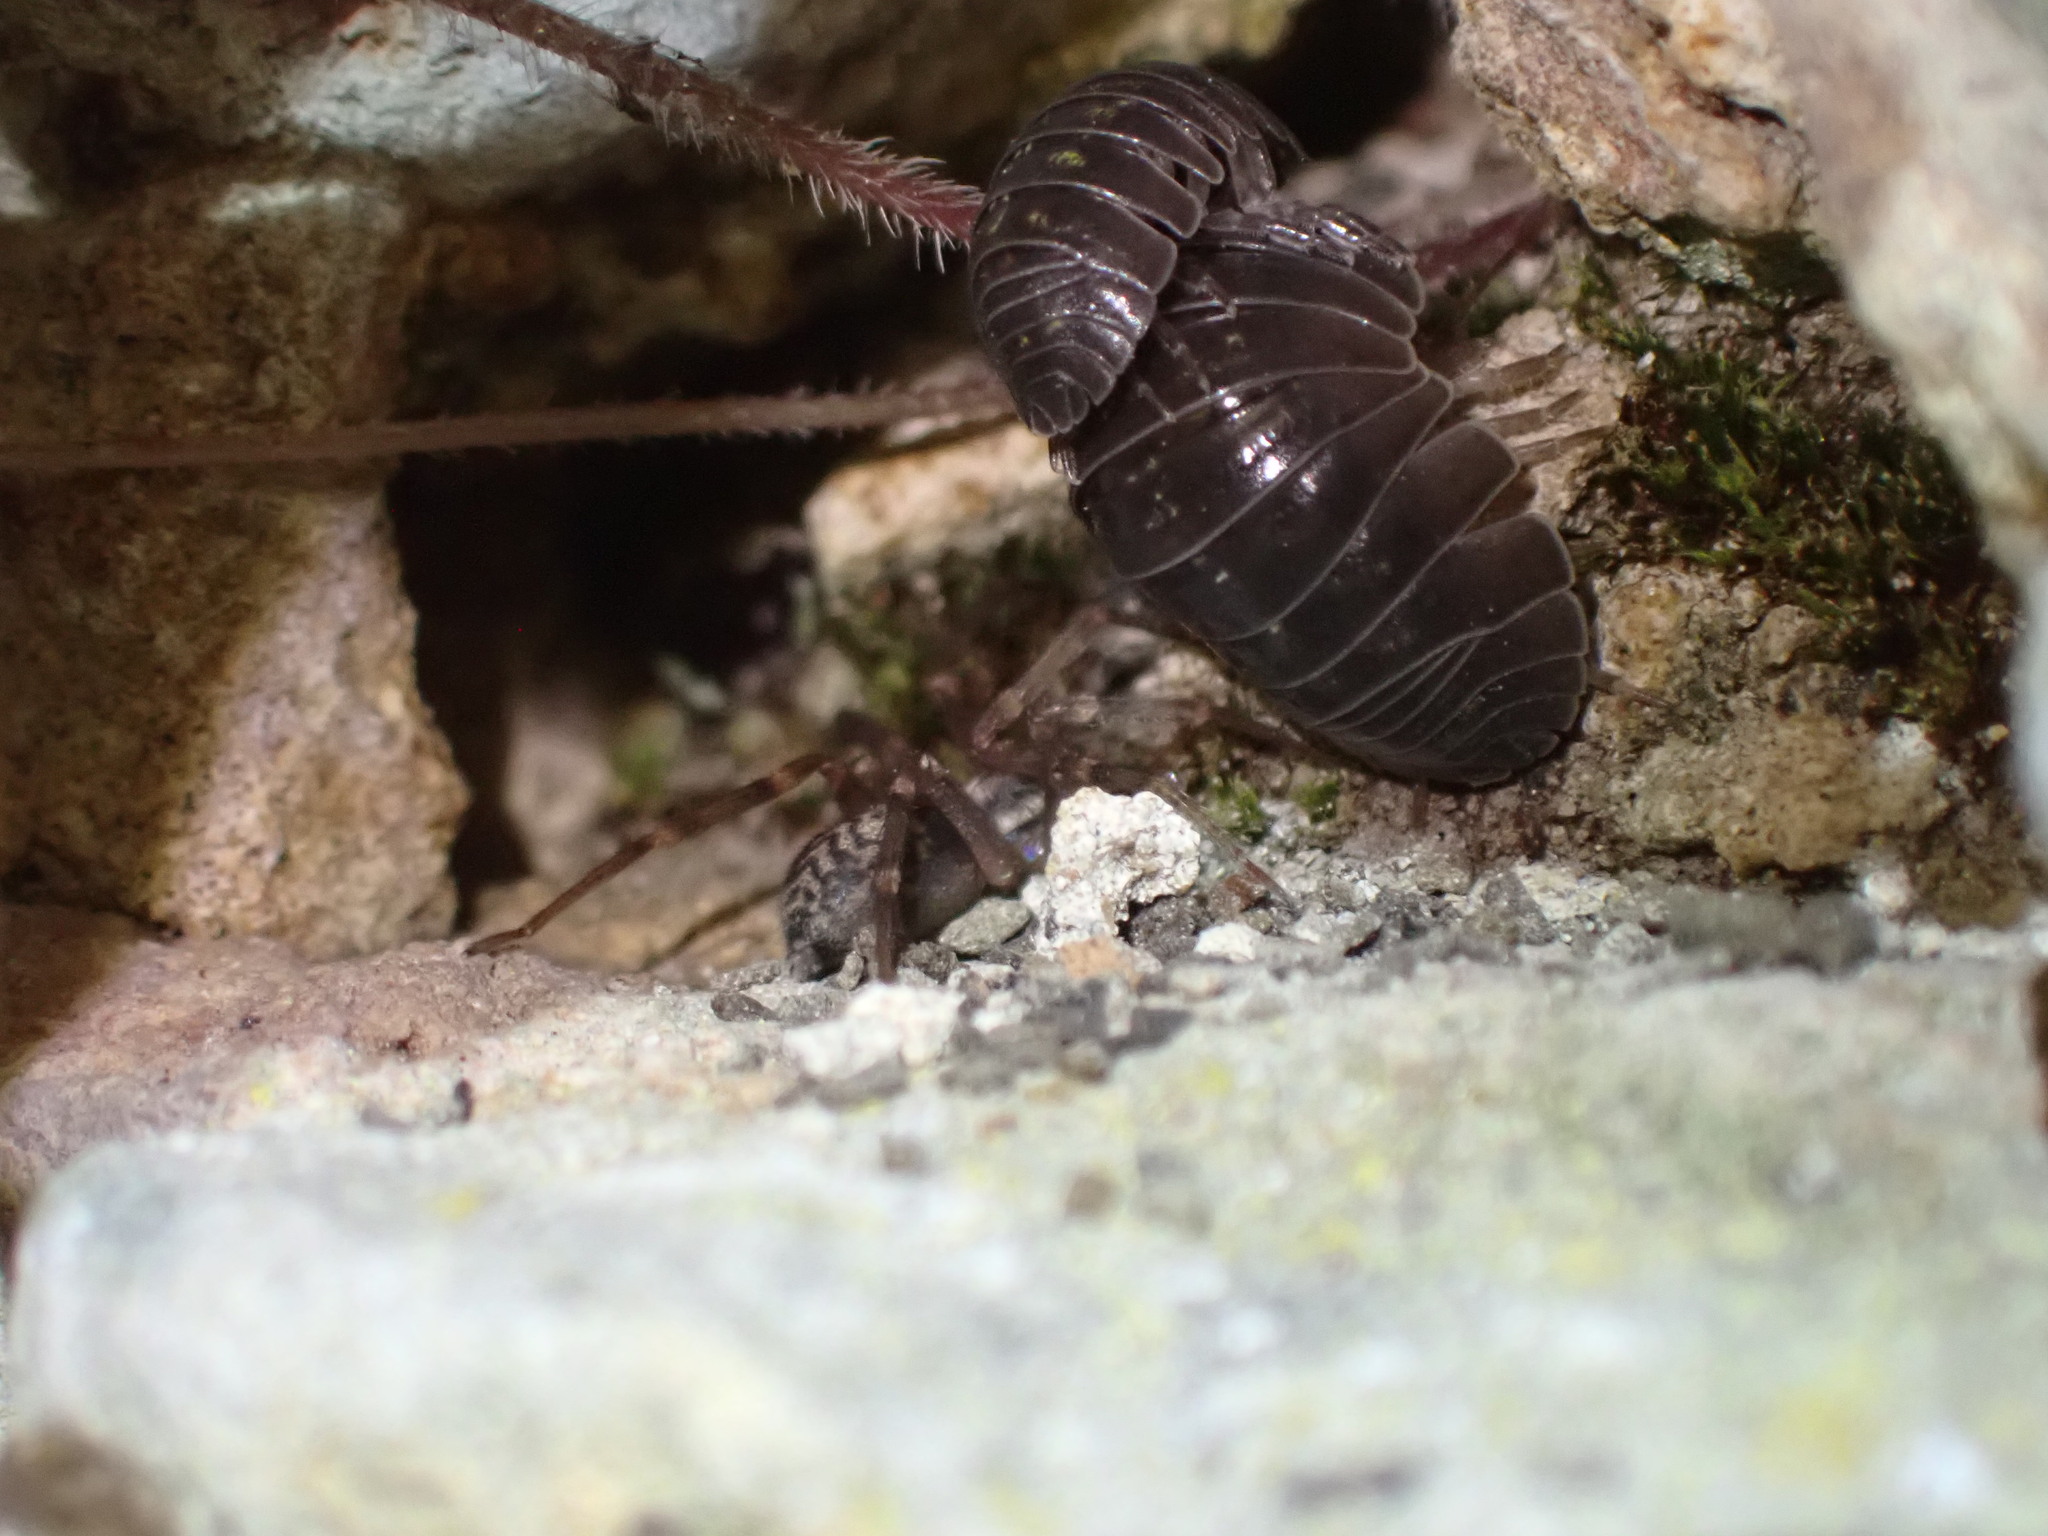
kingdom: Animalia
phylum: Arthropoda
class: Arachnida
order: Araneae
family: Liocranidae
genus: Liocranum
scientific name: Liocranum rupicola
